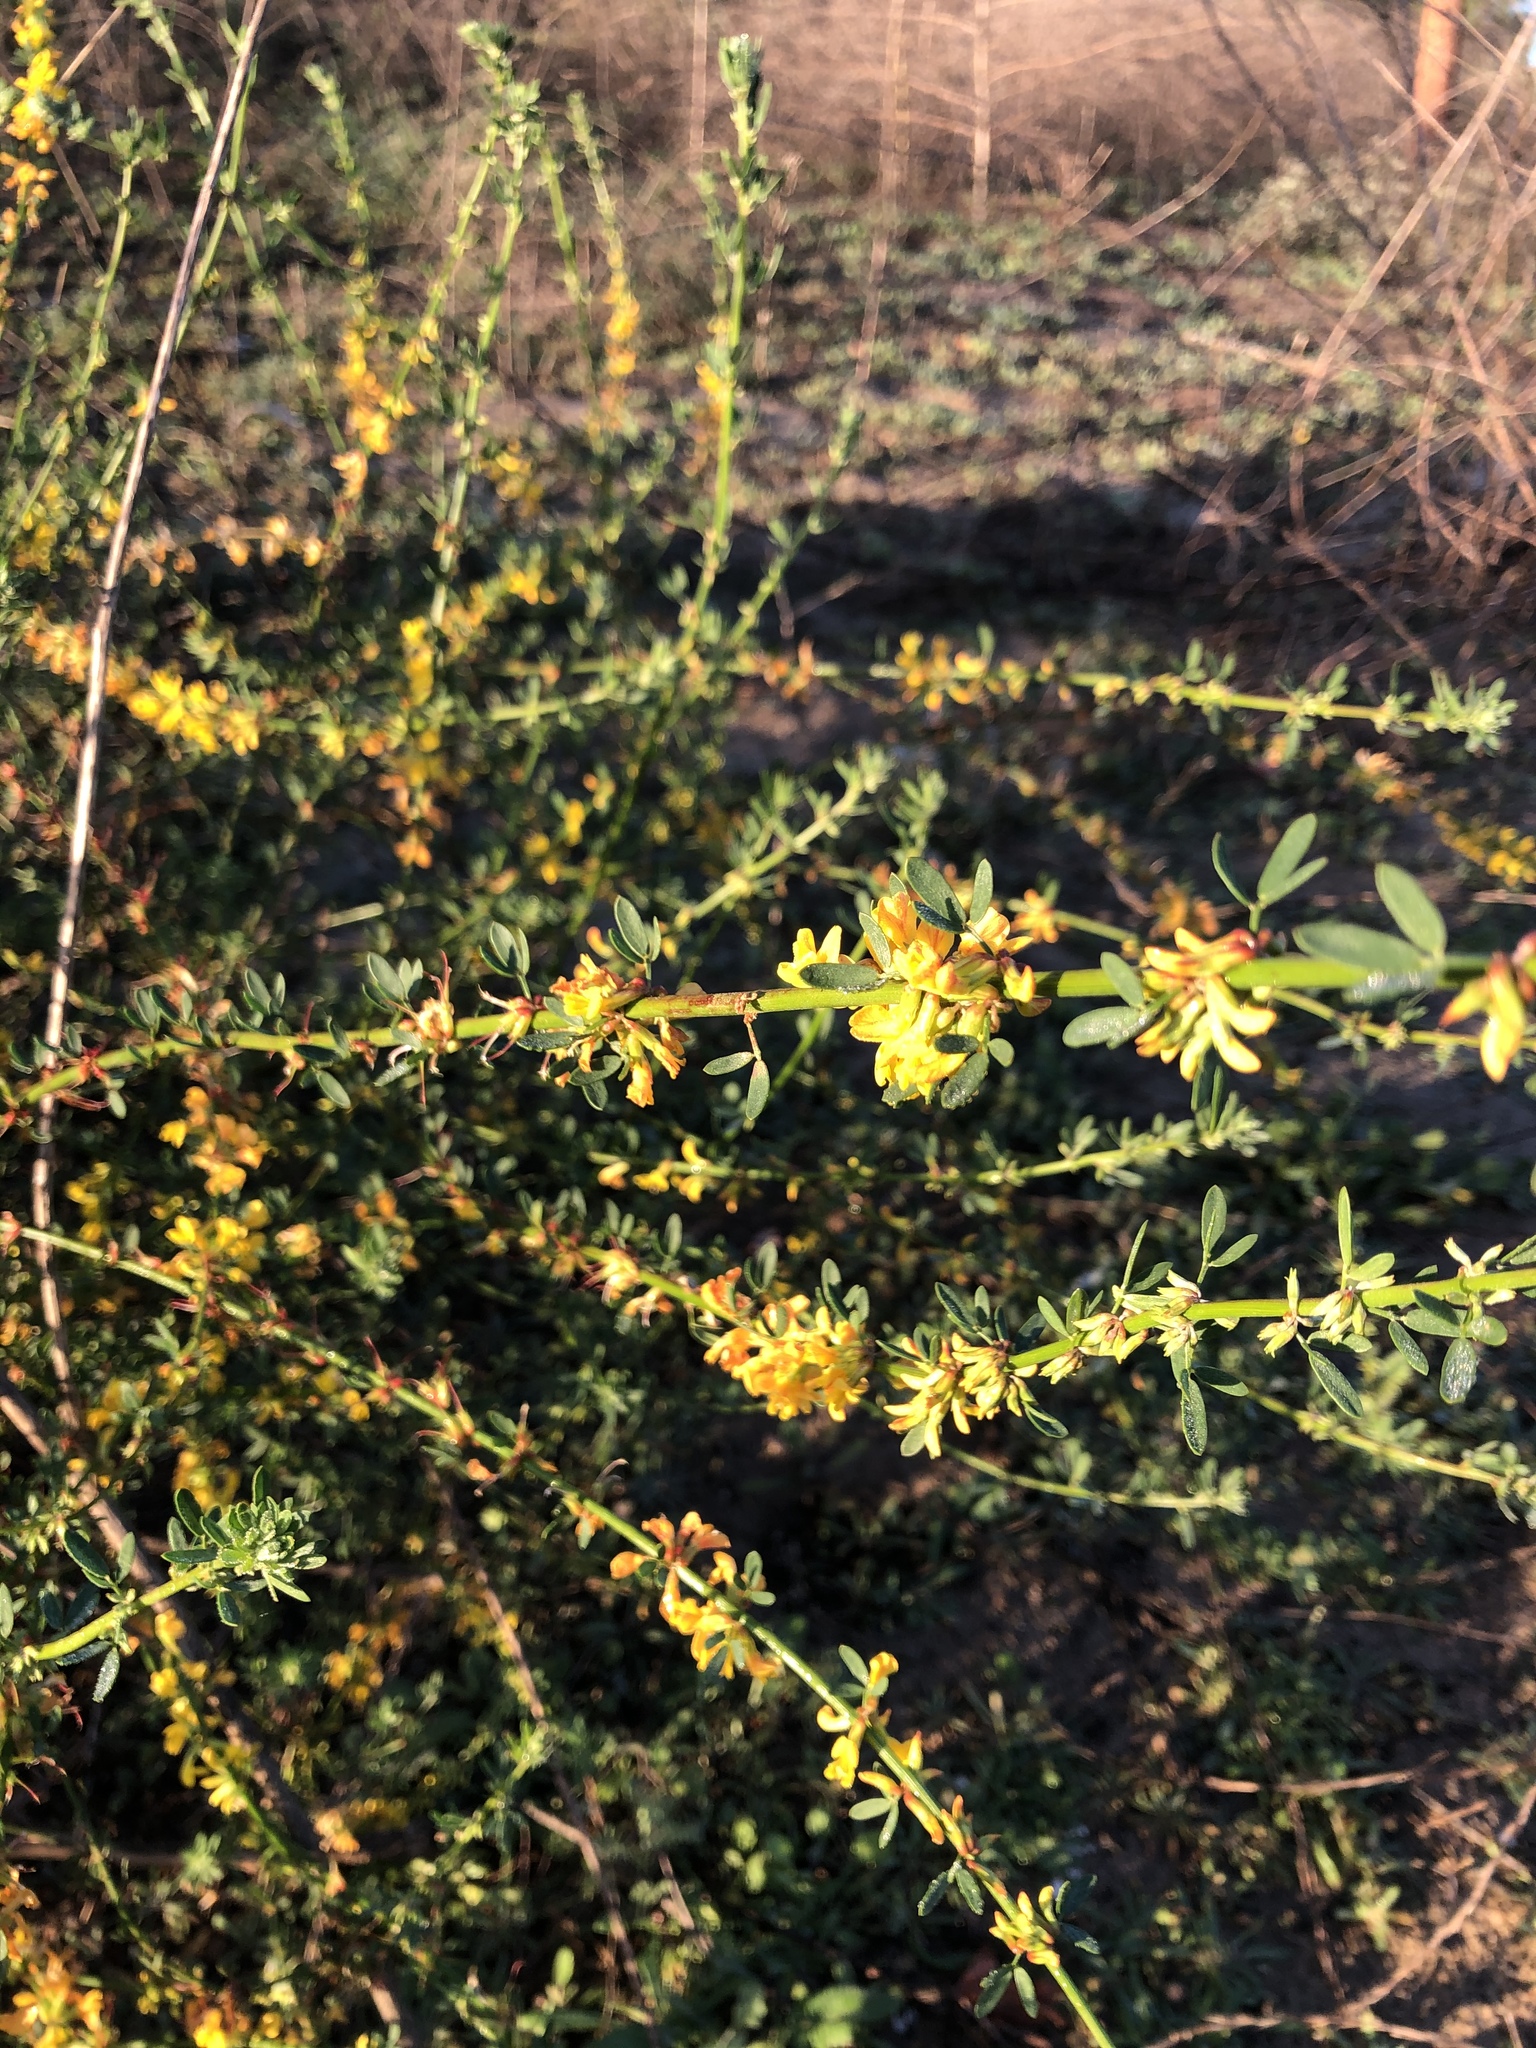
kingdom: Plantae
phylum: Tracheophyta
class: Magnoliopsida
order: Fabales
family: Fabaceae
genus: Acmispon
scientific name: Acmispon glaber
